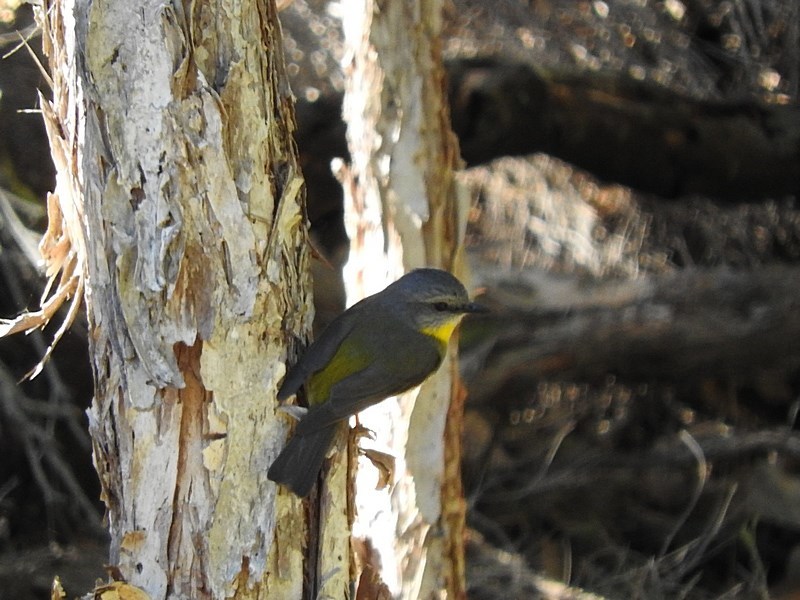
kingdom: Animalia
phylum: Chordata
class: Aves
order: Passeriformes
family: Petroicidae
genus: Eopsaltria
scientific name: Eopsaltria australis
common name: Eastern yellow robin
